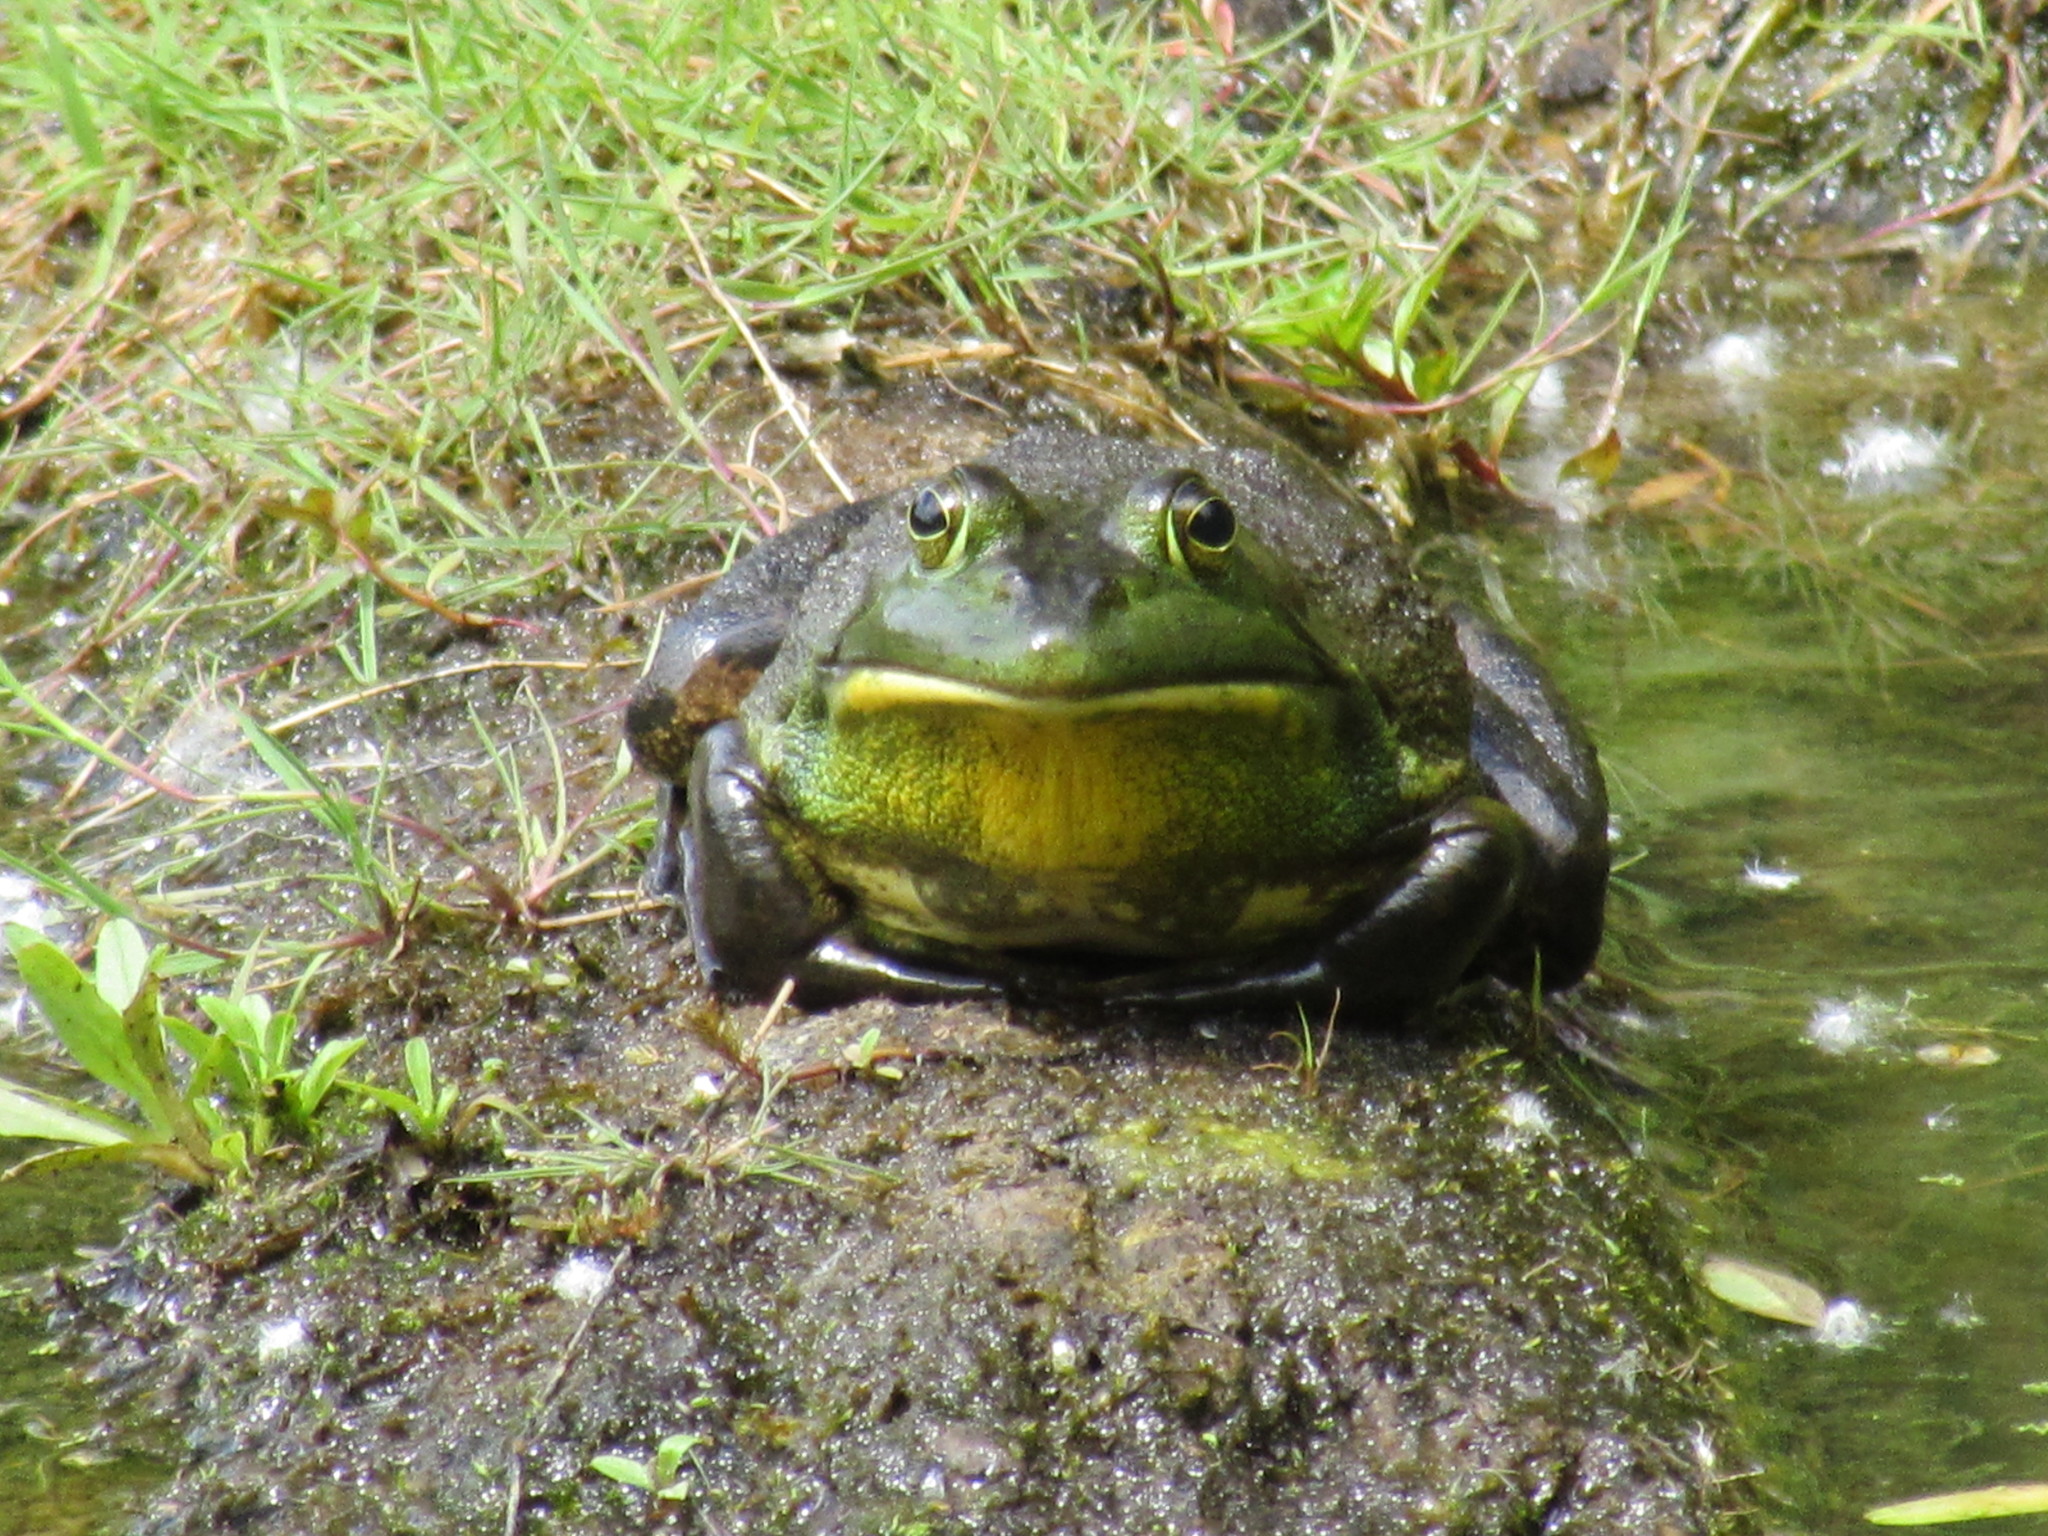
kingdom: Animalia
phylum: Chordata
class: Amphibia
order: Anura
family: Ranidae
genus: Lithobates
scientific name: Lithobates catesbeianus
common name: American bullfrog
